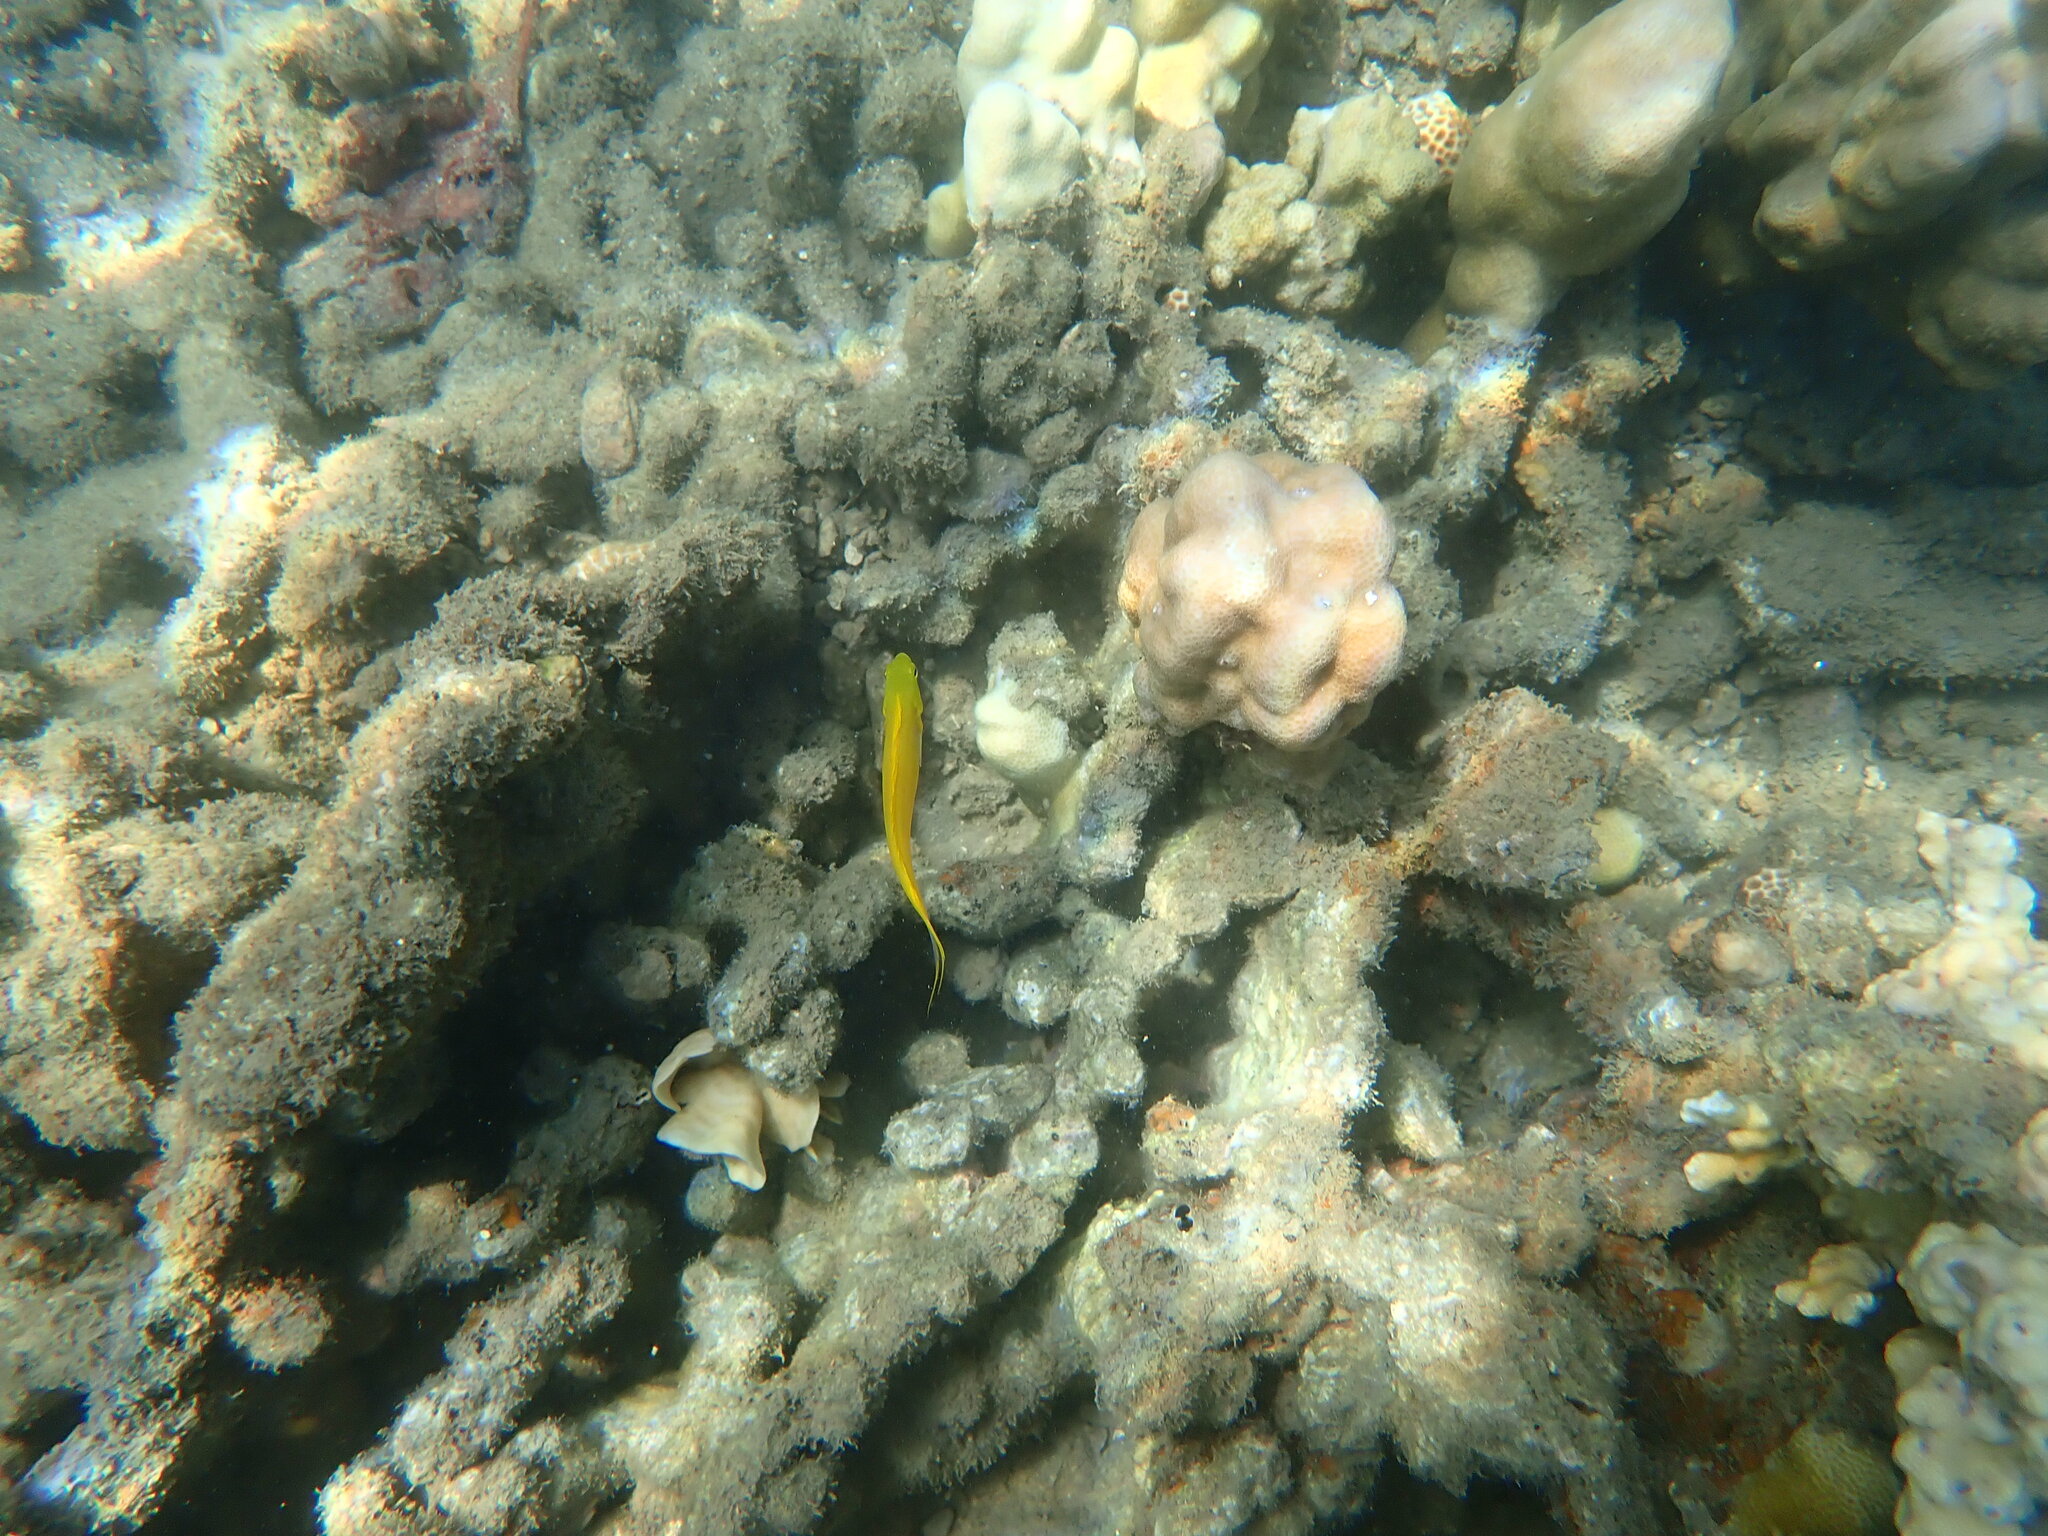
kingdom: Animalia
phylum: Chordata
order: Perciformes
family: Blenniidae
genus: Meiacanthus
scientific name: Meiacanthus oualanensis
